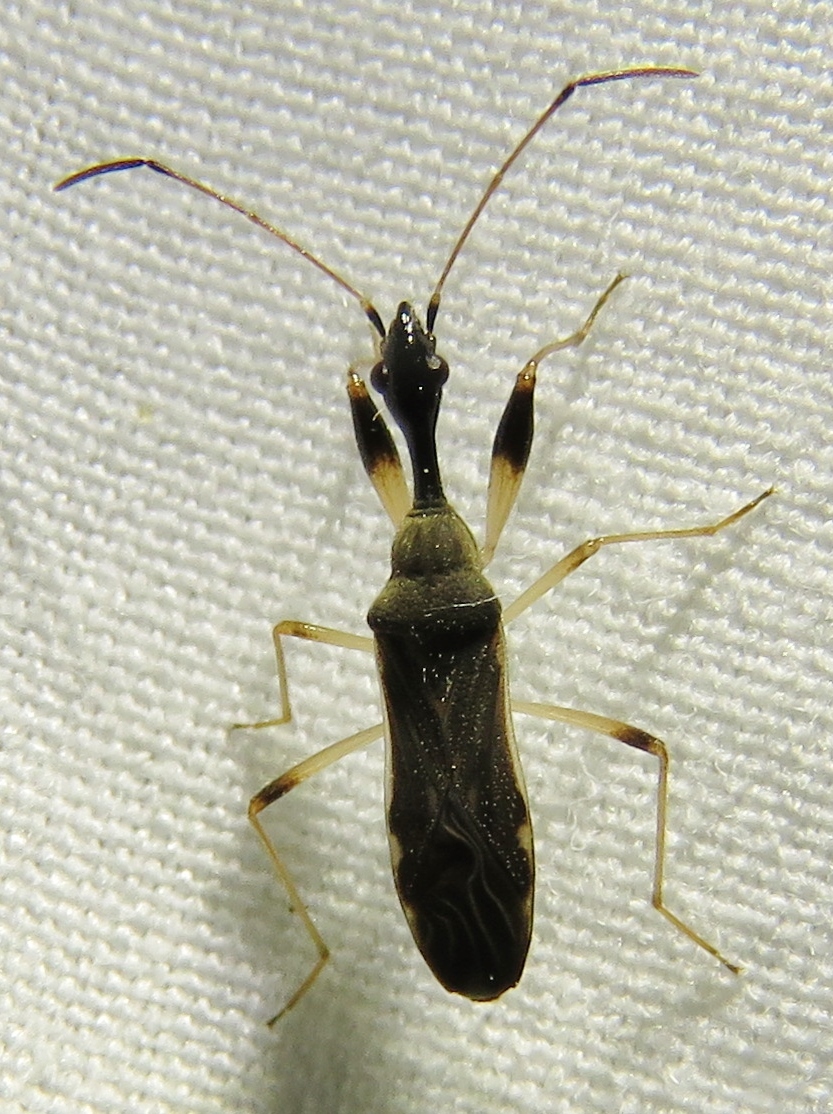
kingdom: Animalia
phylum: Arthropoda
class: Insecta
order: Hemiptera
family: Rhyparochromidae
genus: Myodocha
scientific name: Myodocha serripes
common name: Long-necked seed bug
